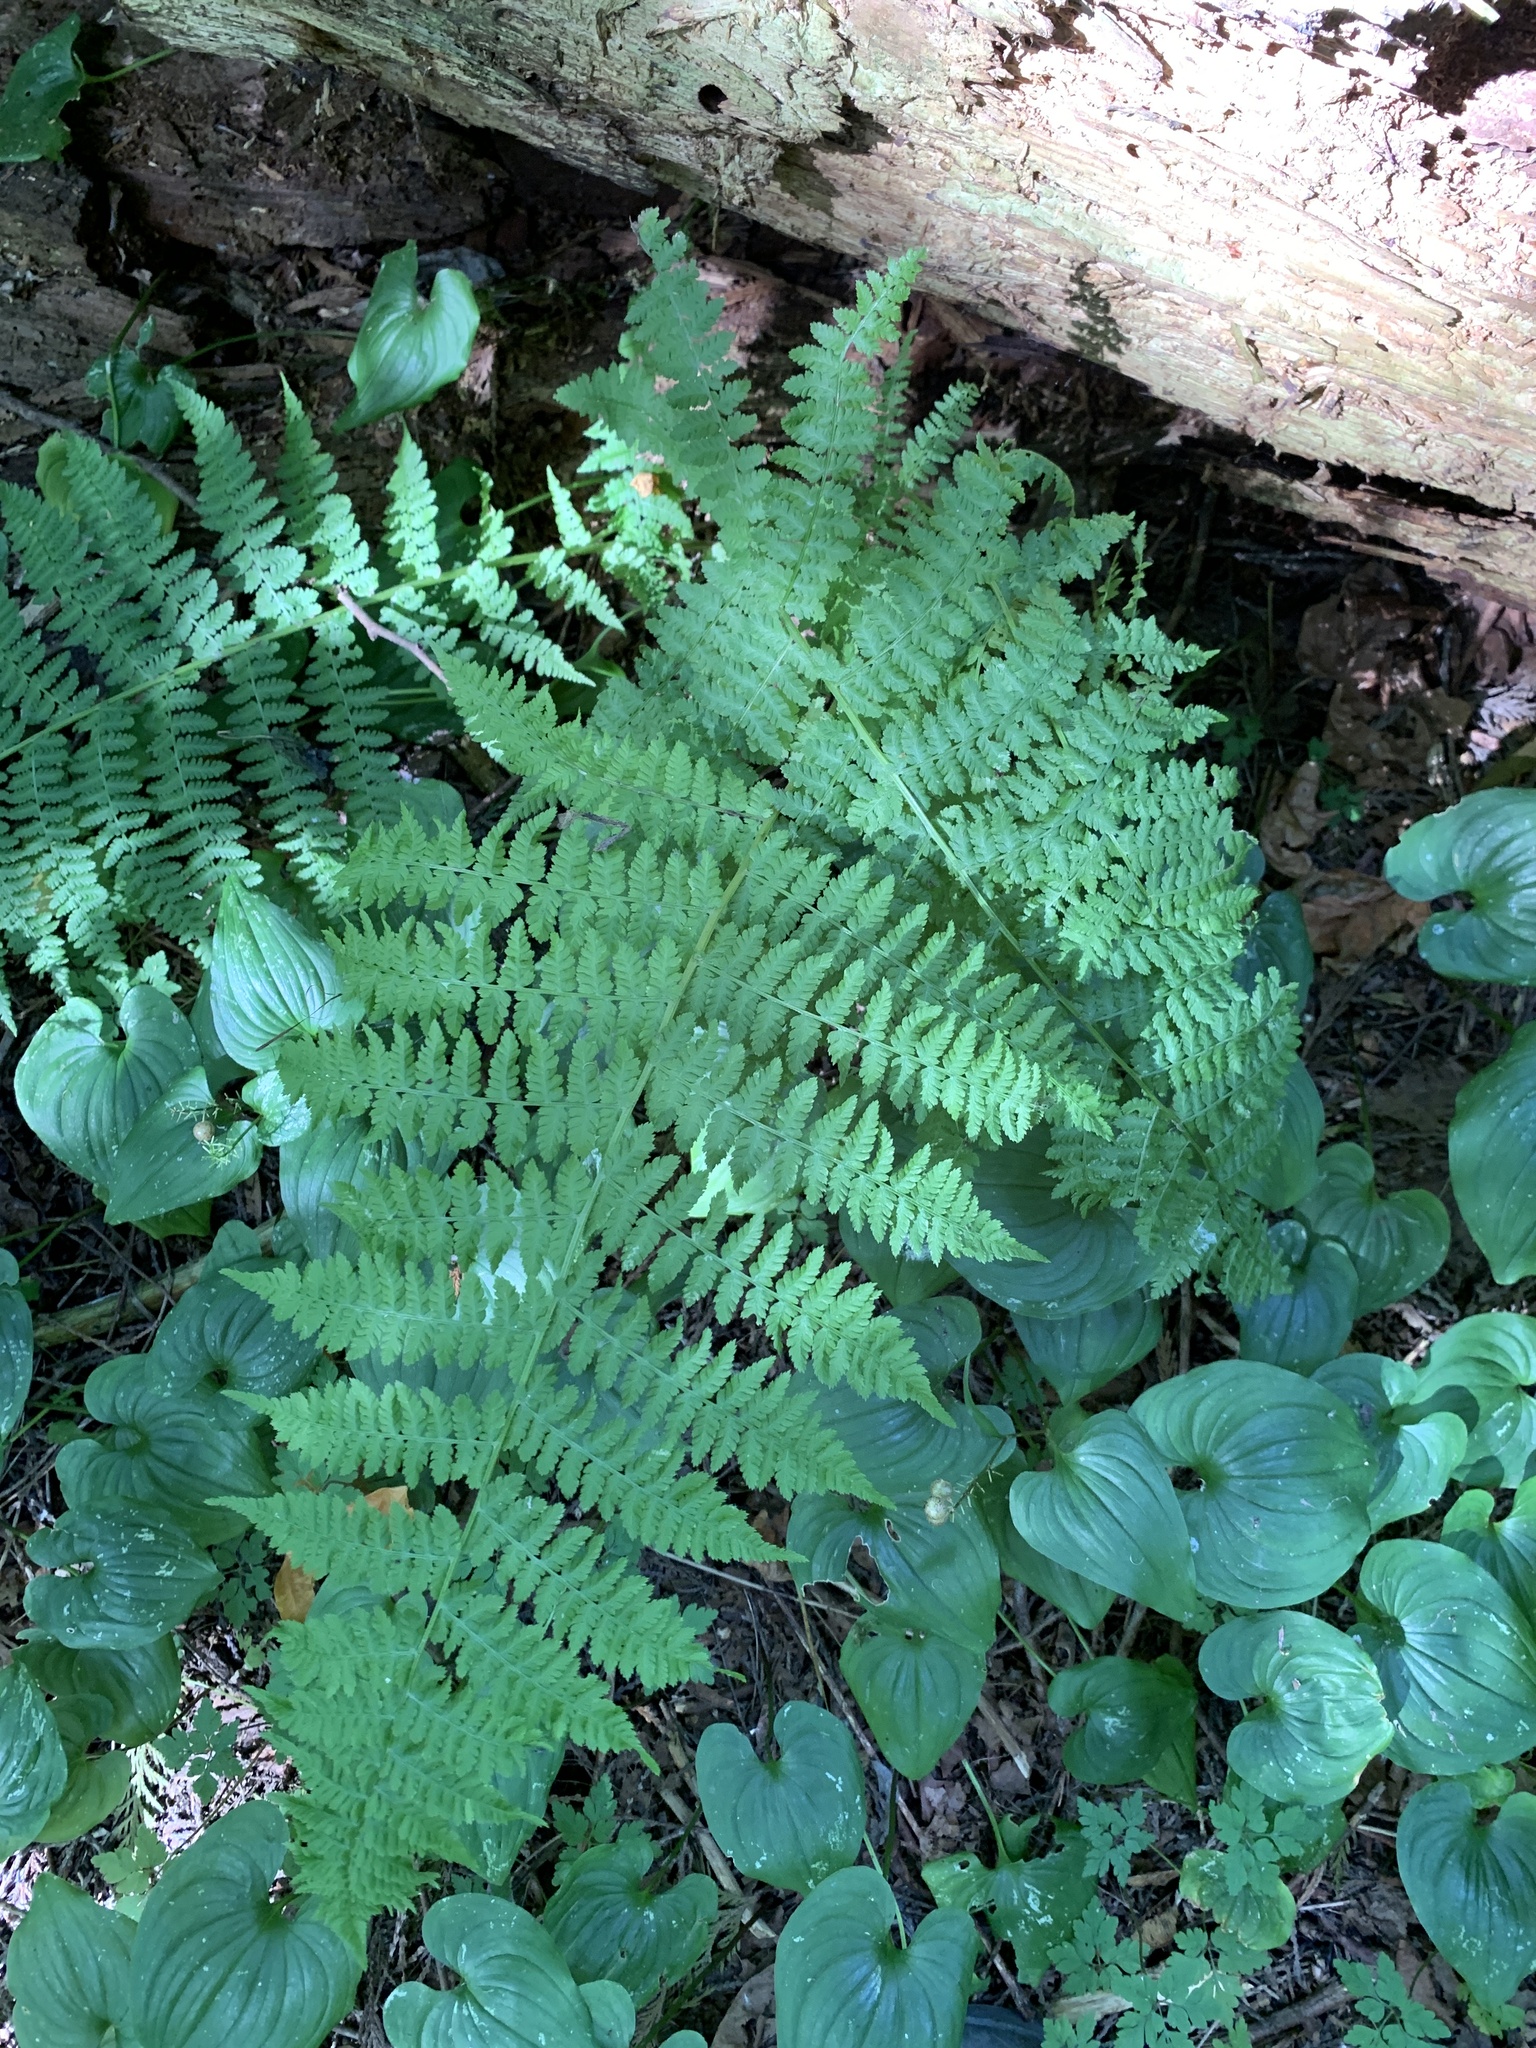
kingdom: Plantae
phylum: Tracheophyta
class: Polypodiopsida
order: Polypodiales
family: Athyriaceae
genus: Athyrium
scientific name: Athyrium cyclosorum
